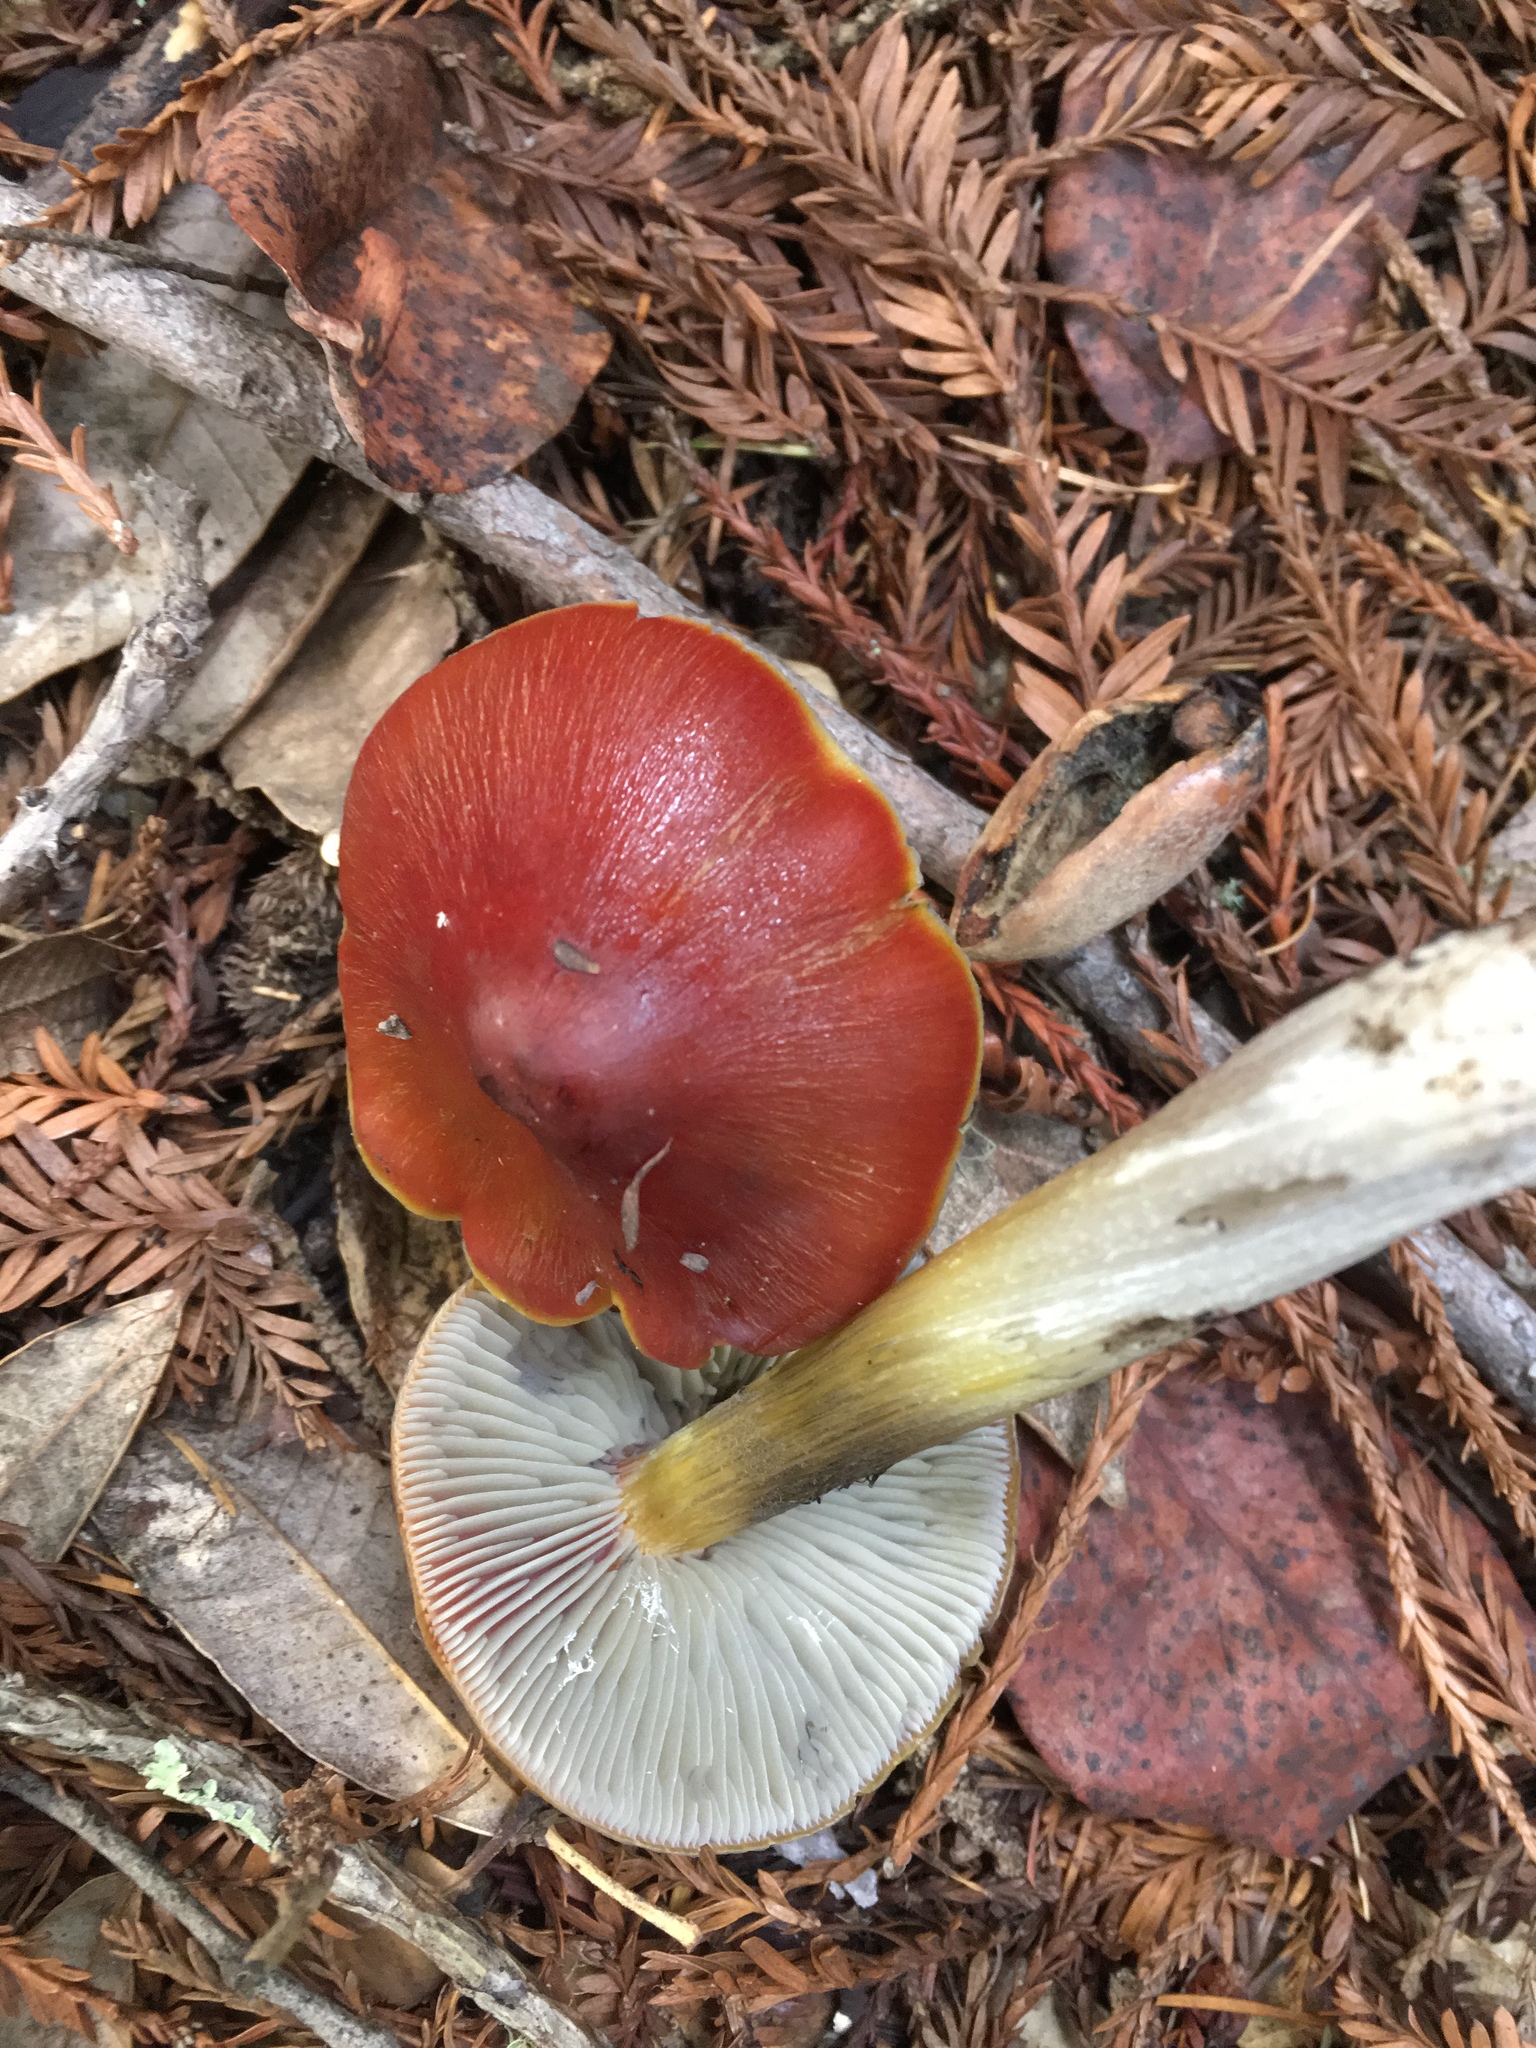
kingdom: Fungi
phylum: Basidiomycota
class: Agaricomycetes
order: Agaricales
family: Hygrophoraceae
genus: Hygrocybe
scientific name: Hygrocybe singeri
